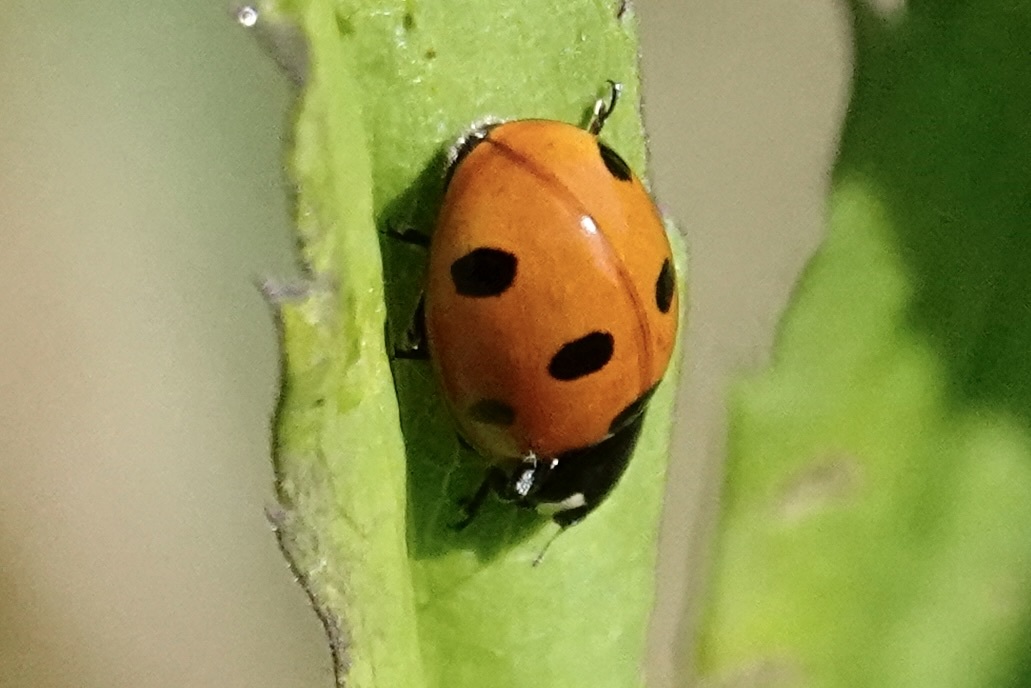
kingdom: Animalia
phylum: Arthropoda
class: Insecta
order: Coleoptera
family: Coccinellidae
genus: Coccinella
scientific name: Coccinella septempunctata
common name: Sevenspotted lady beetle
